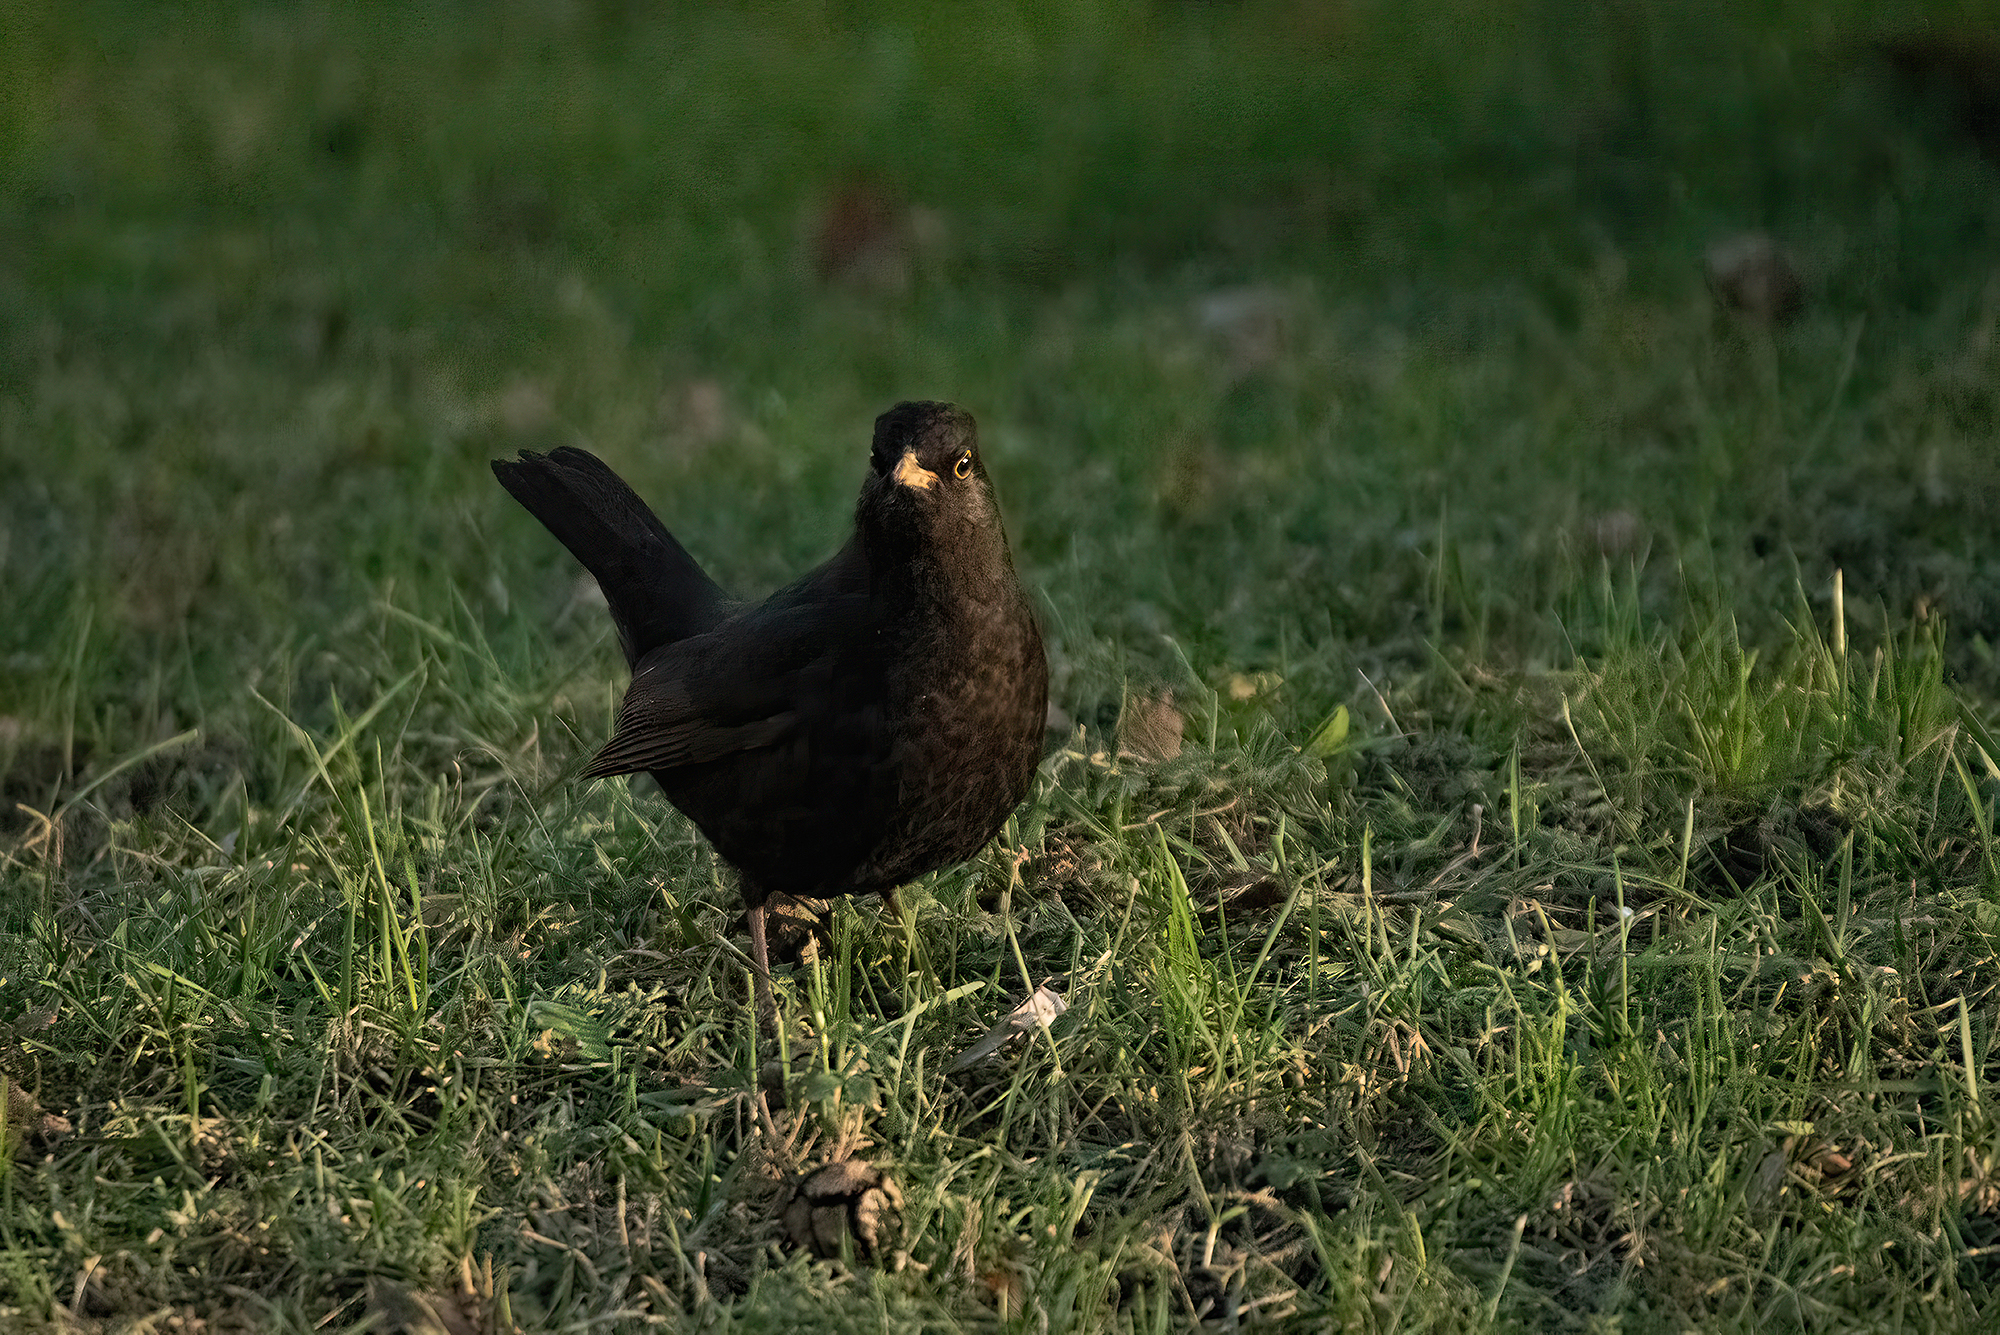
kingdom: Animalia
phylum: Chordata
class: Aves
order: Passeriformes
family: Turdidae
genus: Turdus
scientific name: Turdus merula
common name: Common blackbird
